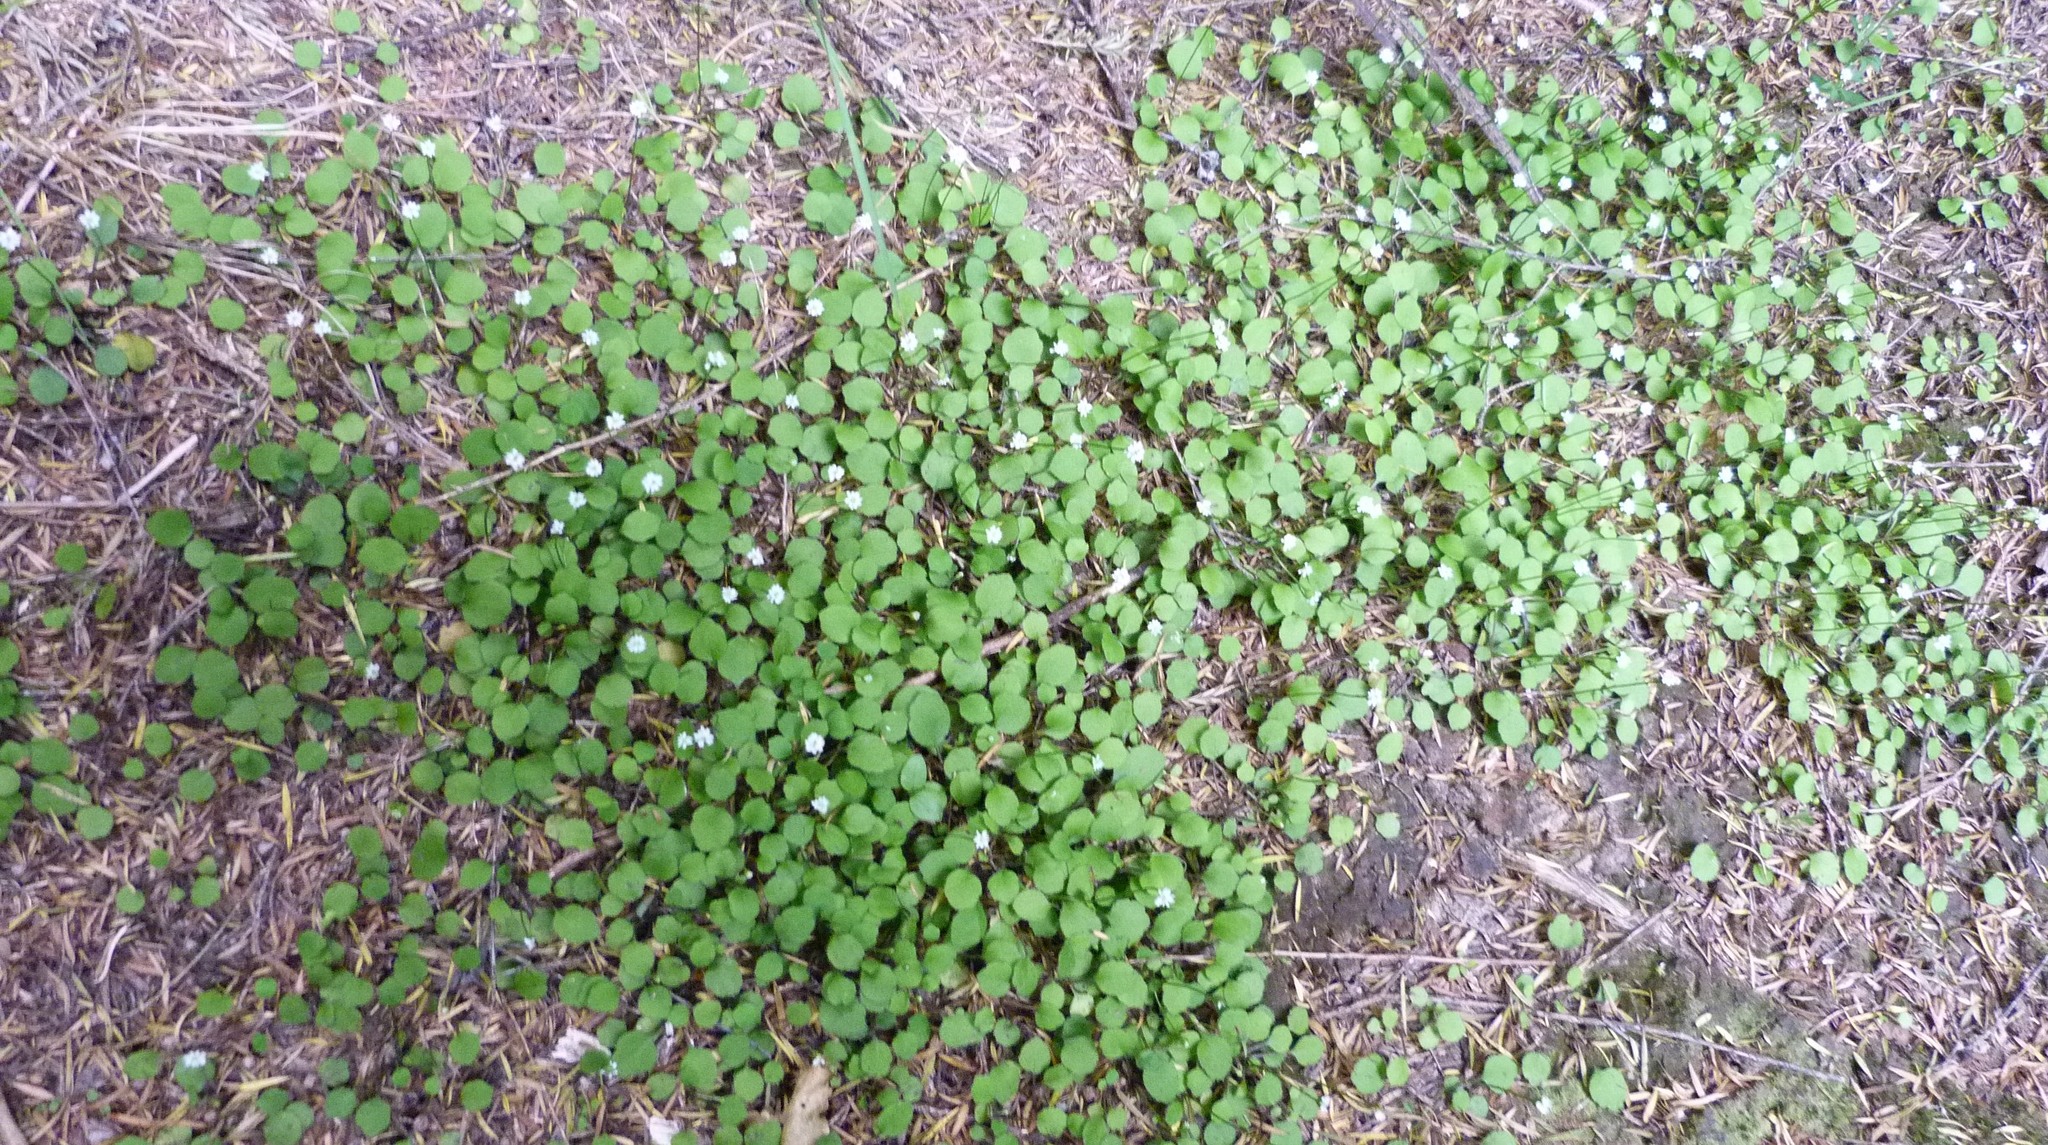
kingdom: Plantae
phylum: Tracheophyta
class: Magnoliopsida
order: Asterales
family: Asteraceae
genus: Lagenophora
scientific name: Lagenophora strangulata
